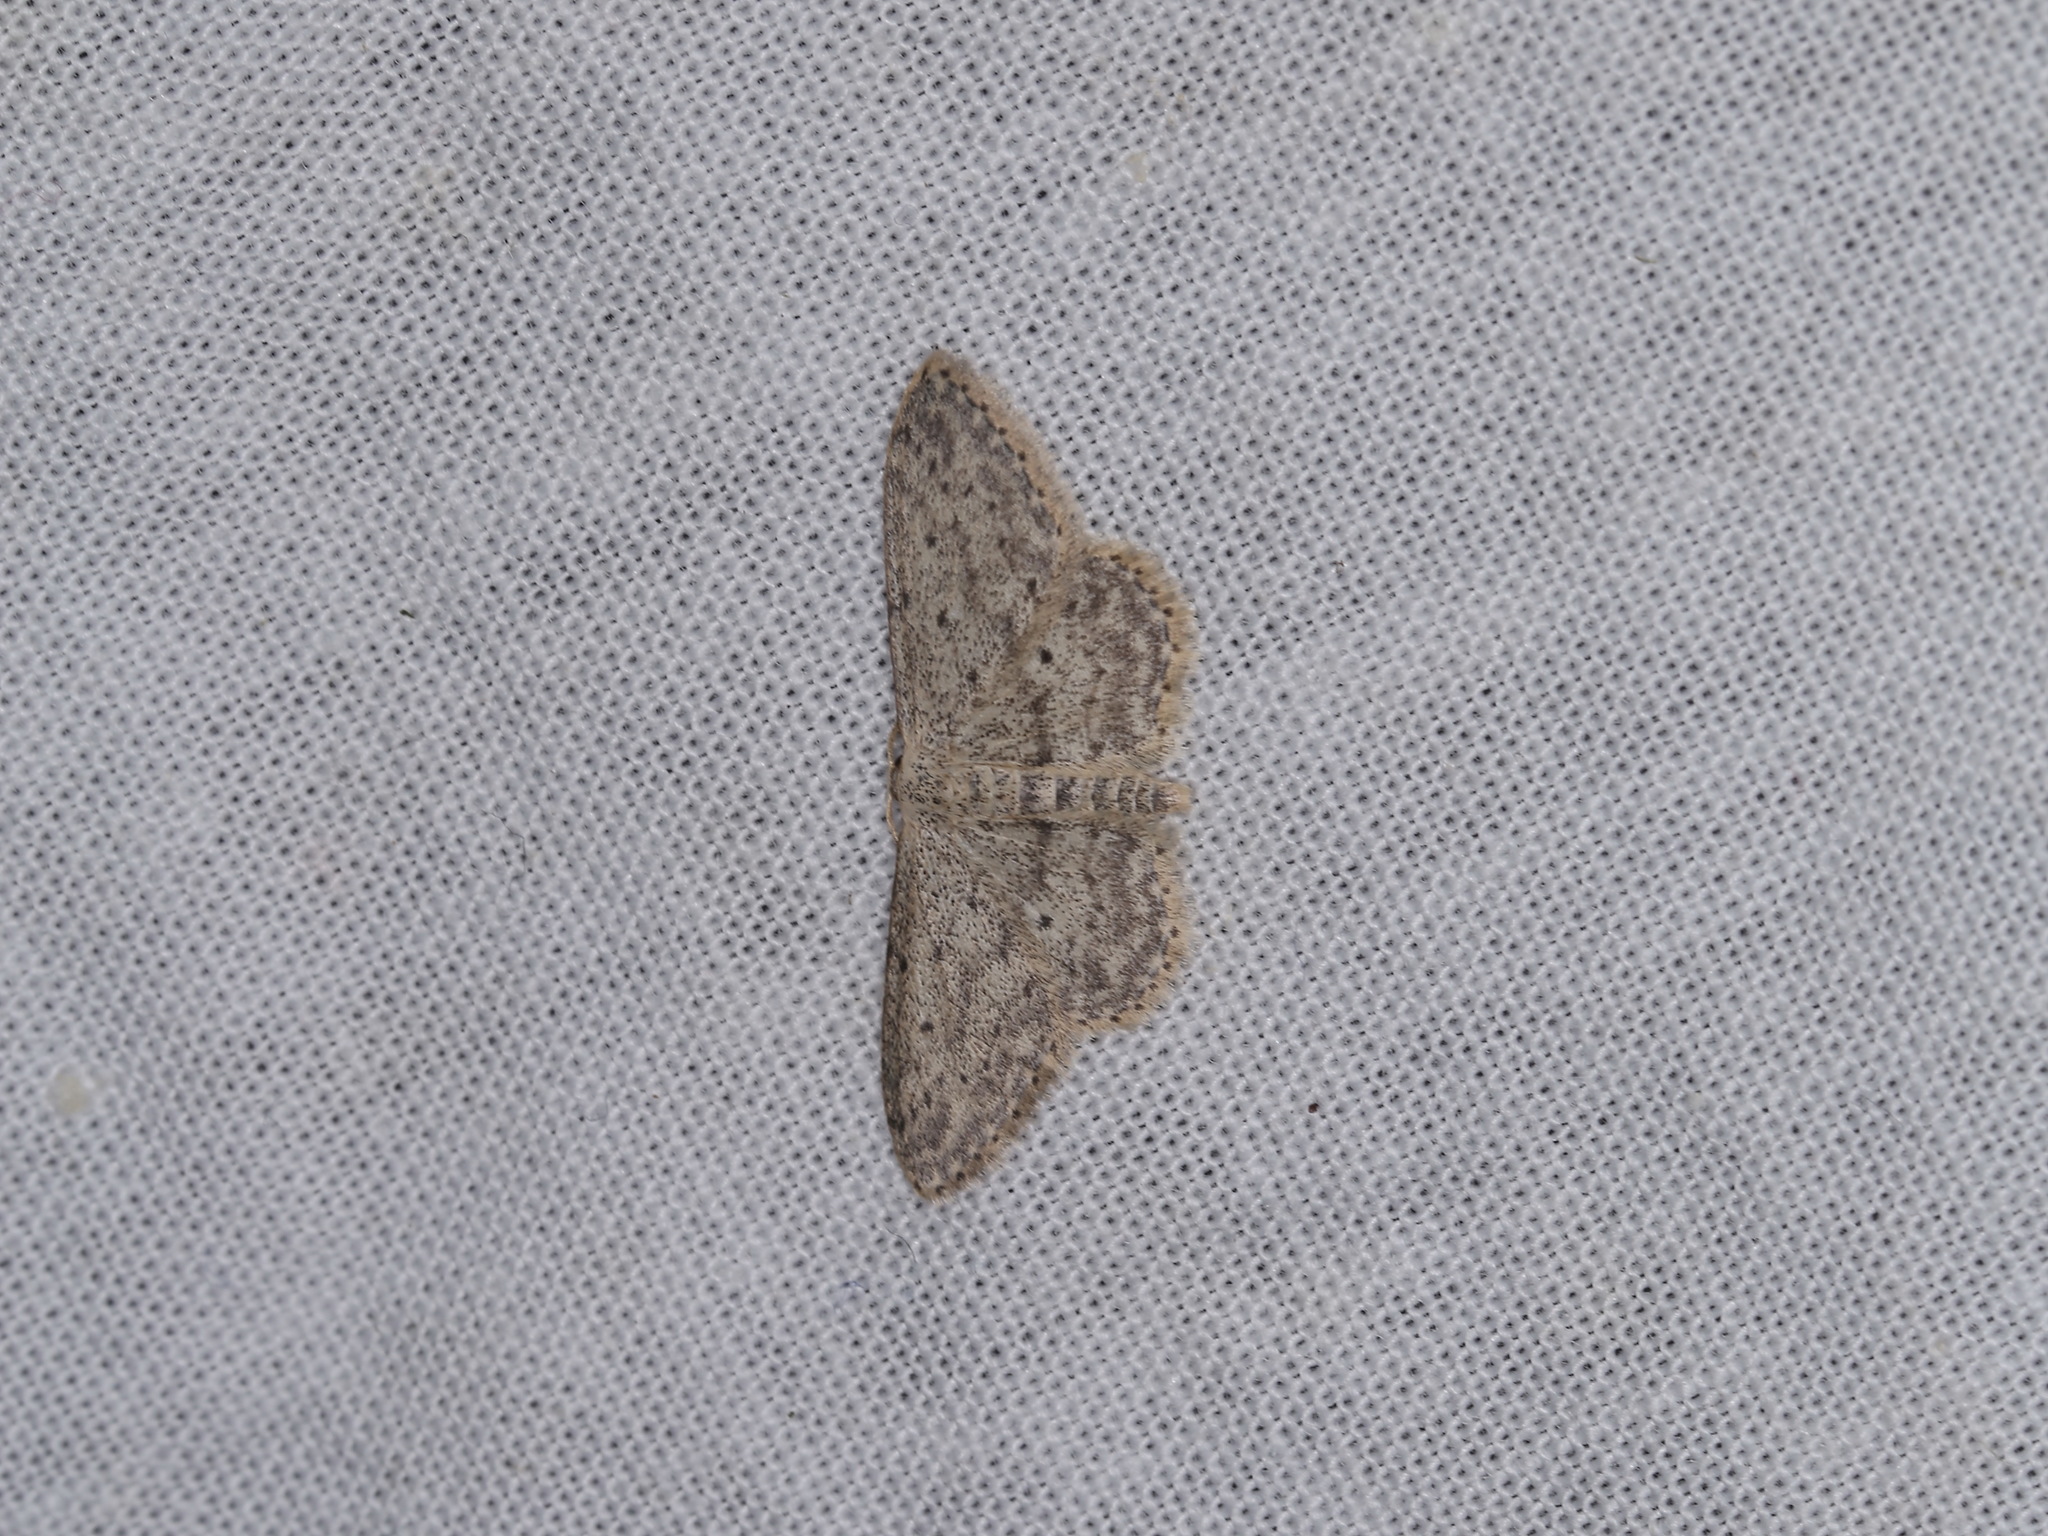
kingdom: Animalia
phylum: Arthropoda
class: Insecta
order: Lepidoptera
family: Geometridae
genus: Idaea
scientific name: Idaea seriata
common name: Small dusty wave
